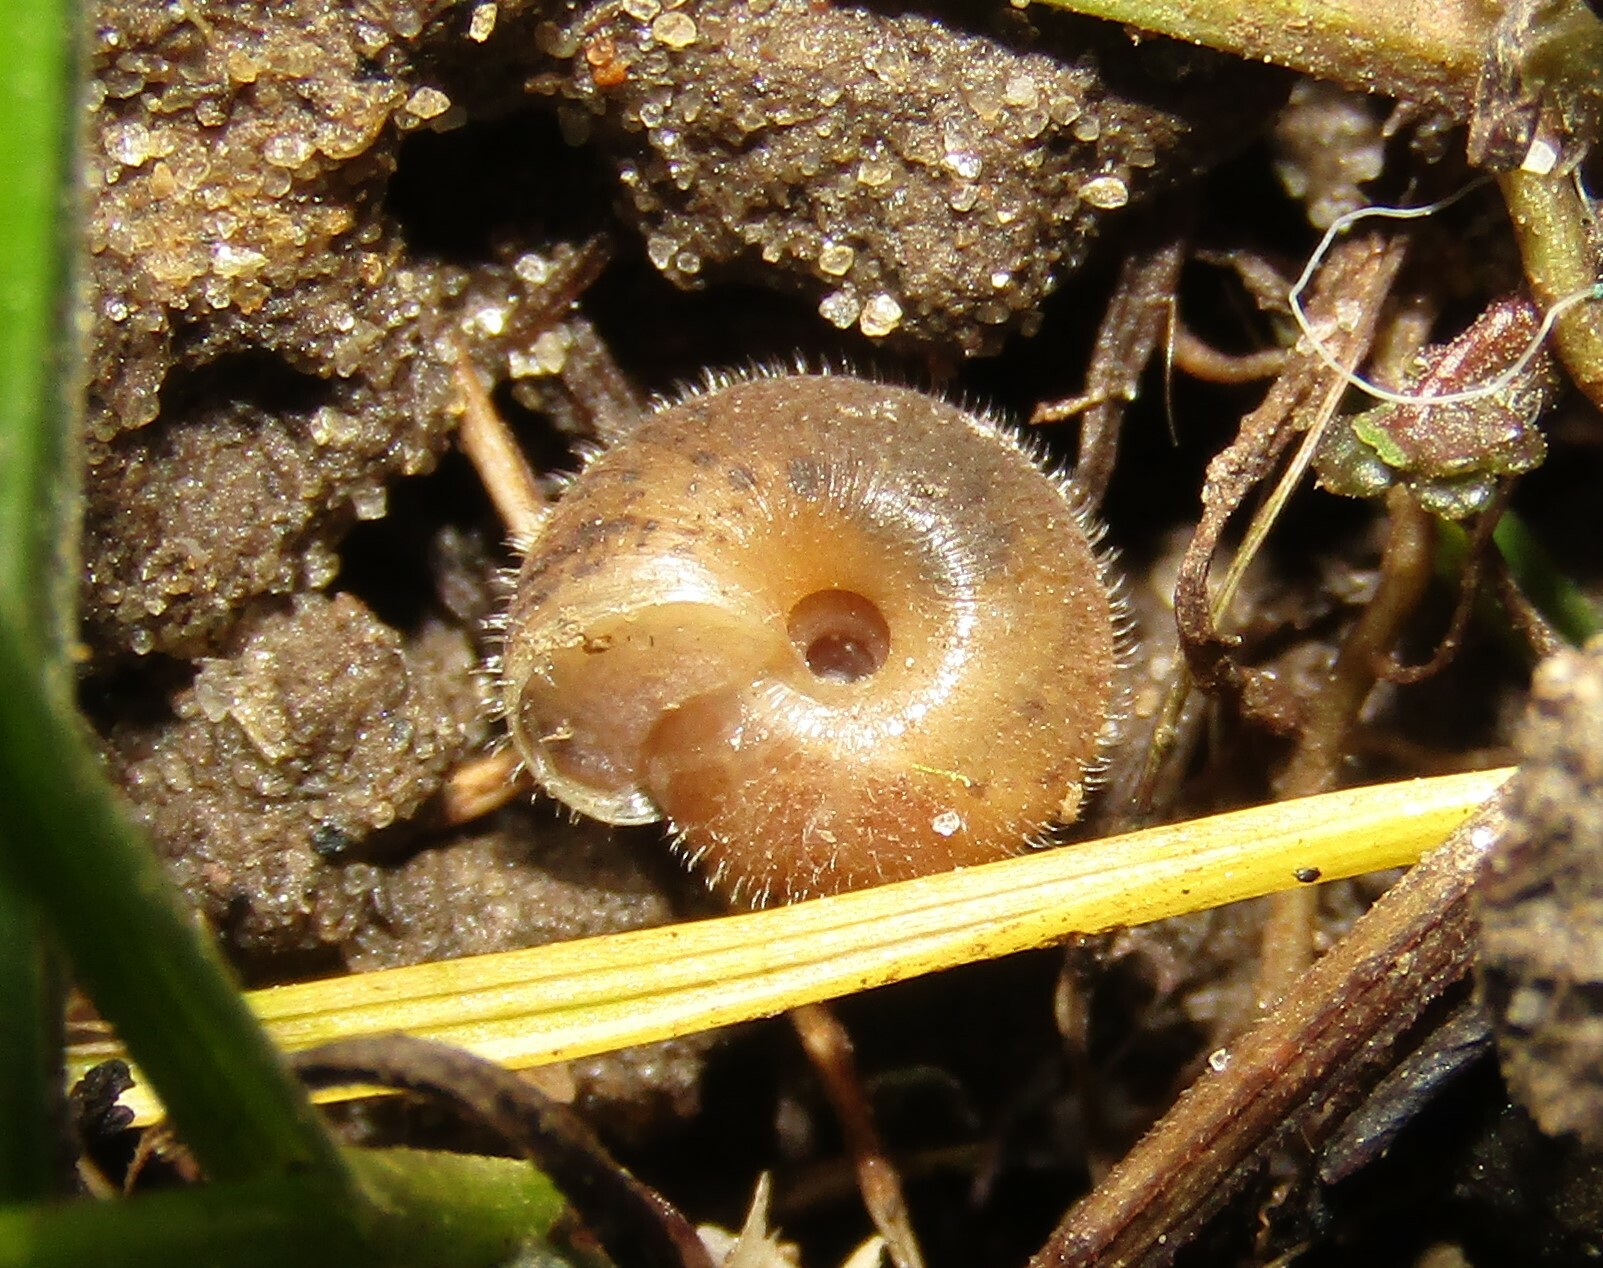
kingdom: Animalia
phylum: Mollusca
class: Gastropoda
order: Stylommatophora
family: Hygromiidae
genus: Trochulus
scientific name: Trochulus hispidus
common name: Hairy snail
